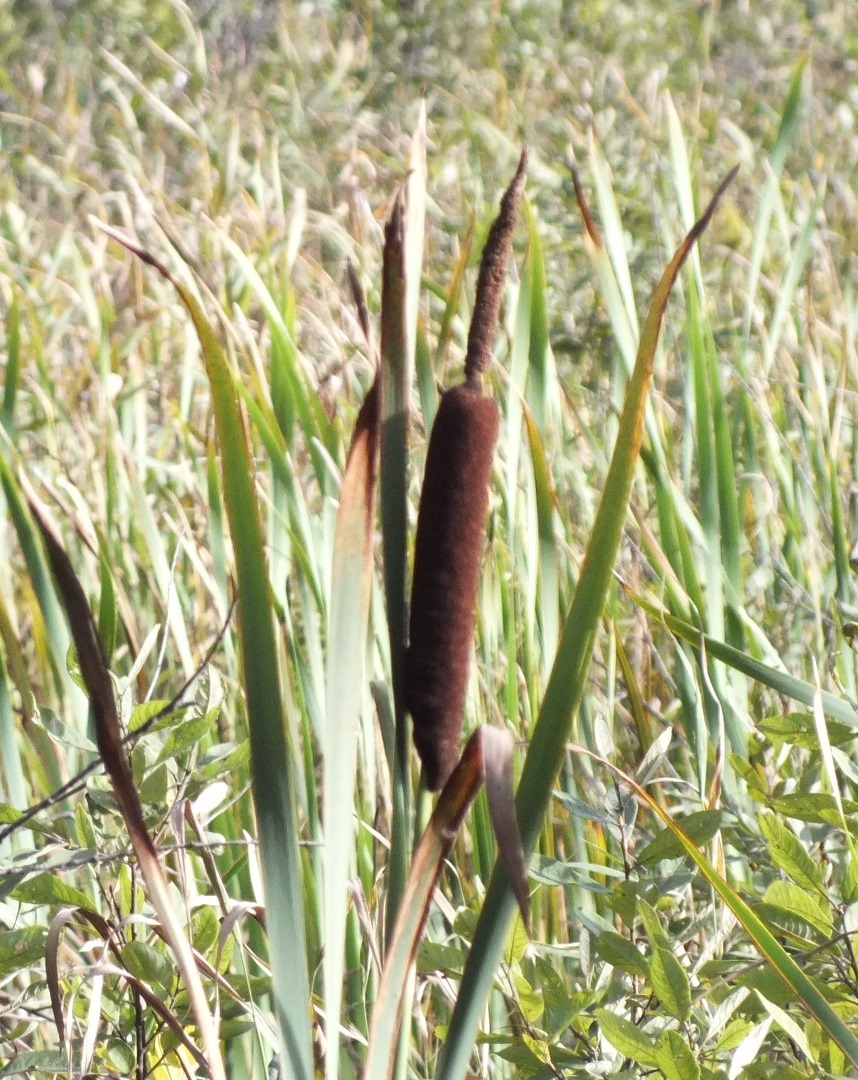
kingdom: Plantae
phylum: Tracheophyta
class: Liliopsida
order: Poales
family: Typhaceae
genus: Typha
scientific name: Typha latifolia
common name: Broadleaf cattail
